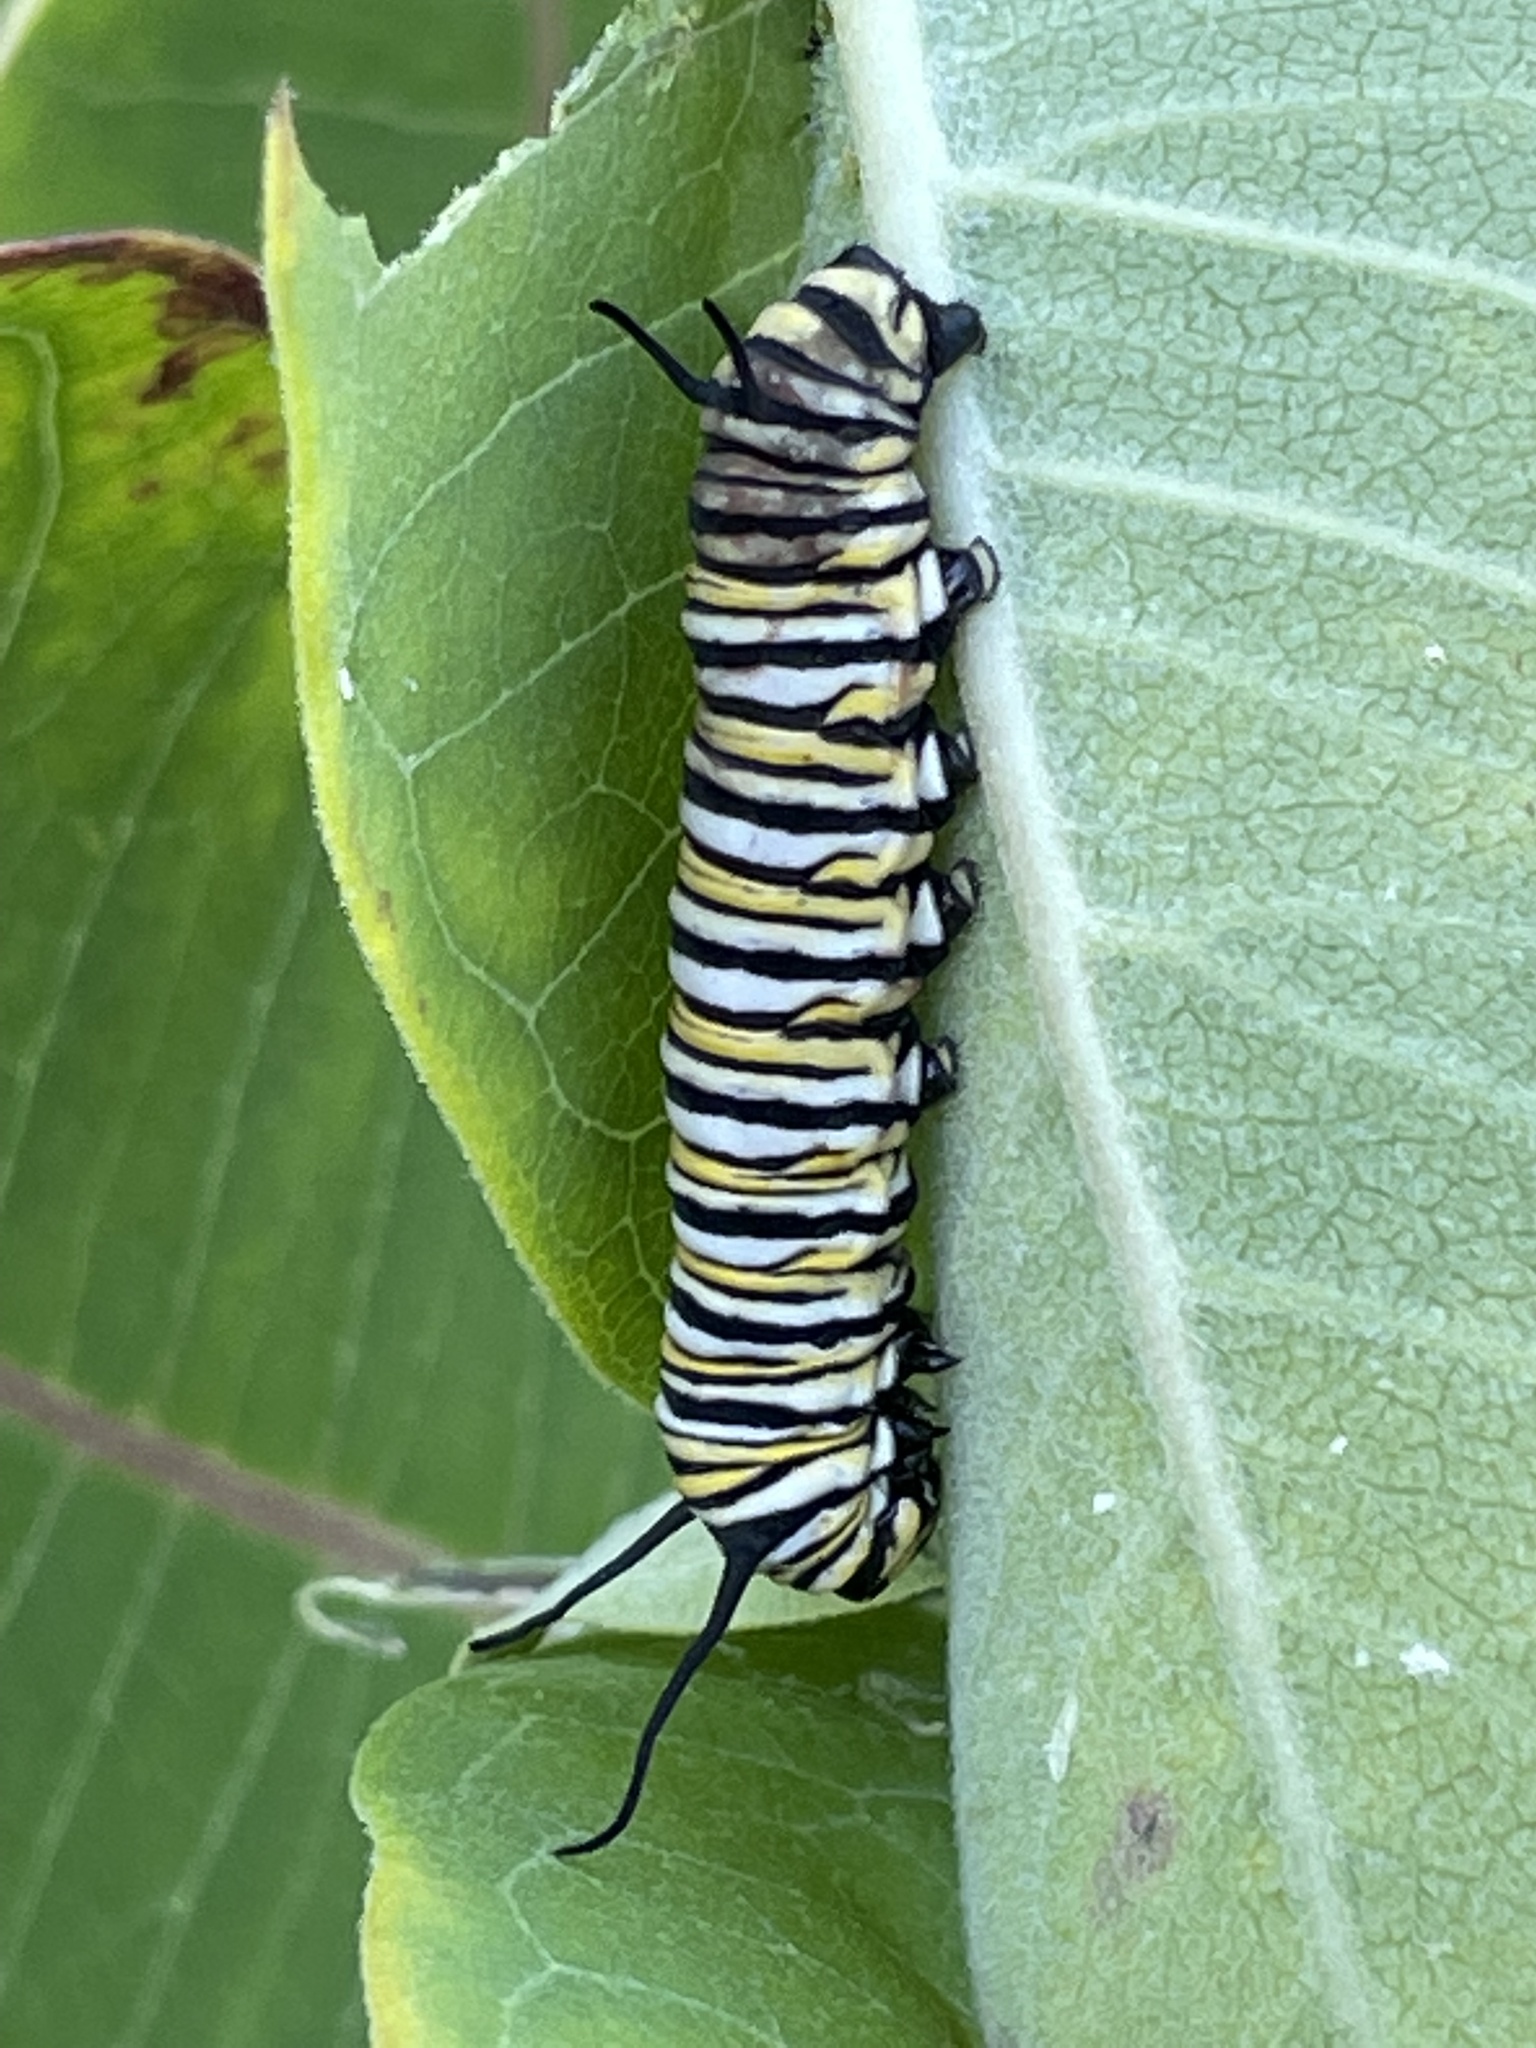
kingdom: Animalia
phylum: Arthropoda
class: Insecta
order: Lepidoptera
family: Nymphalidae
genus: Danaus
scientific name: Danaus plexippus
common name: Monarch
